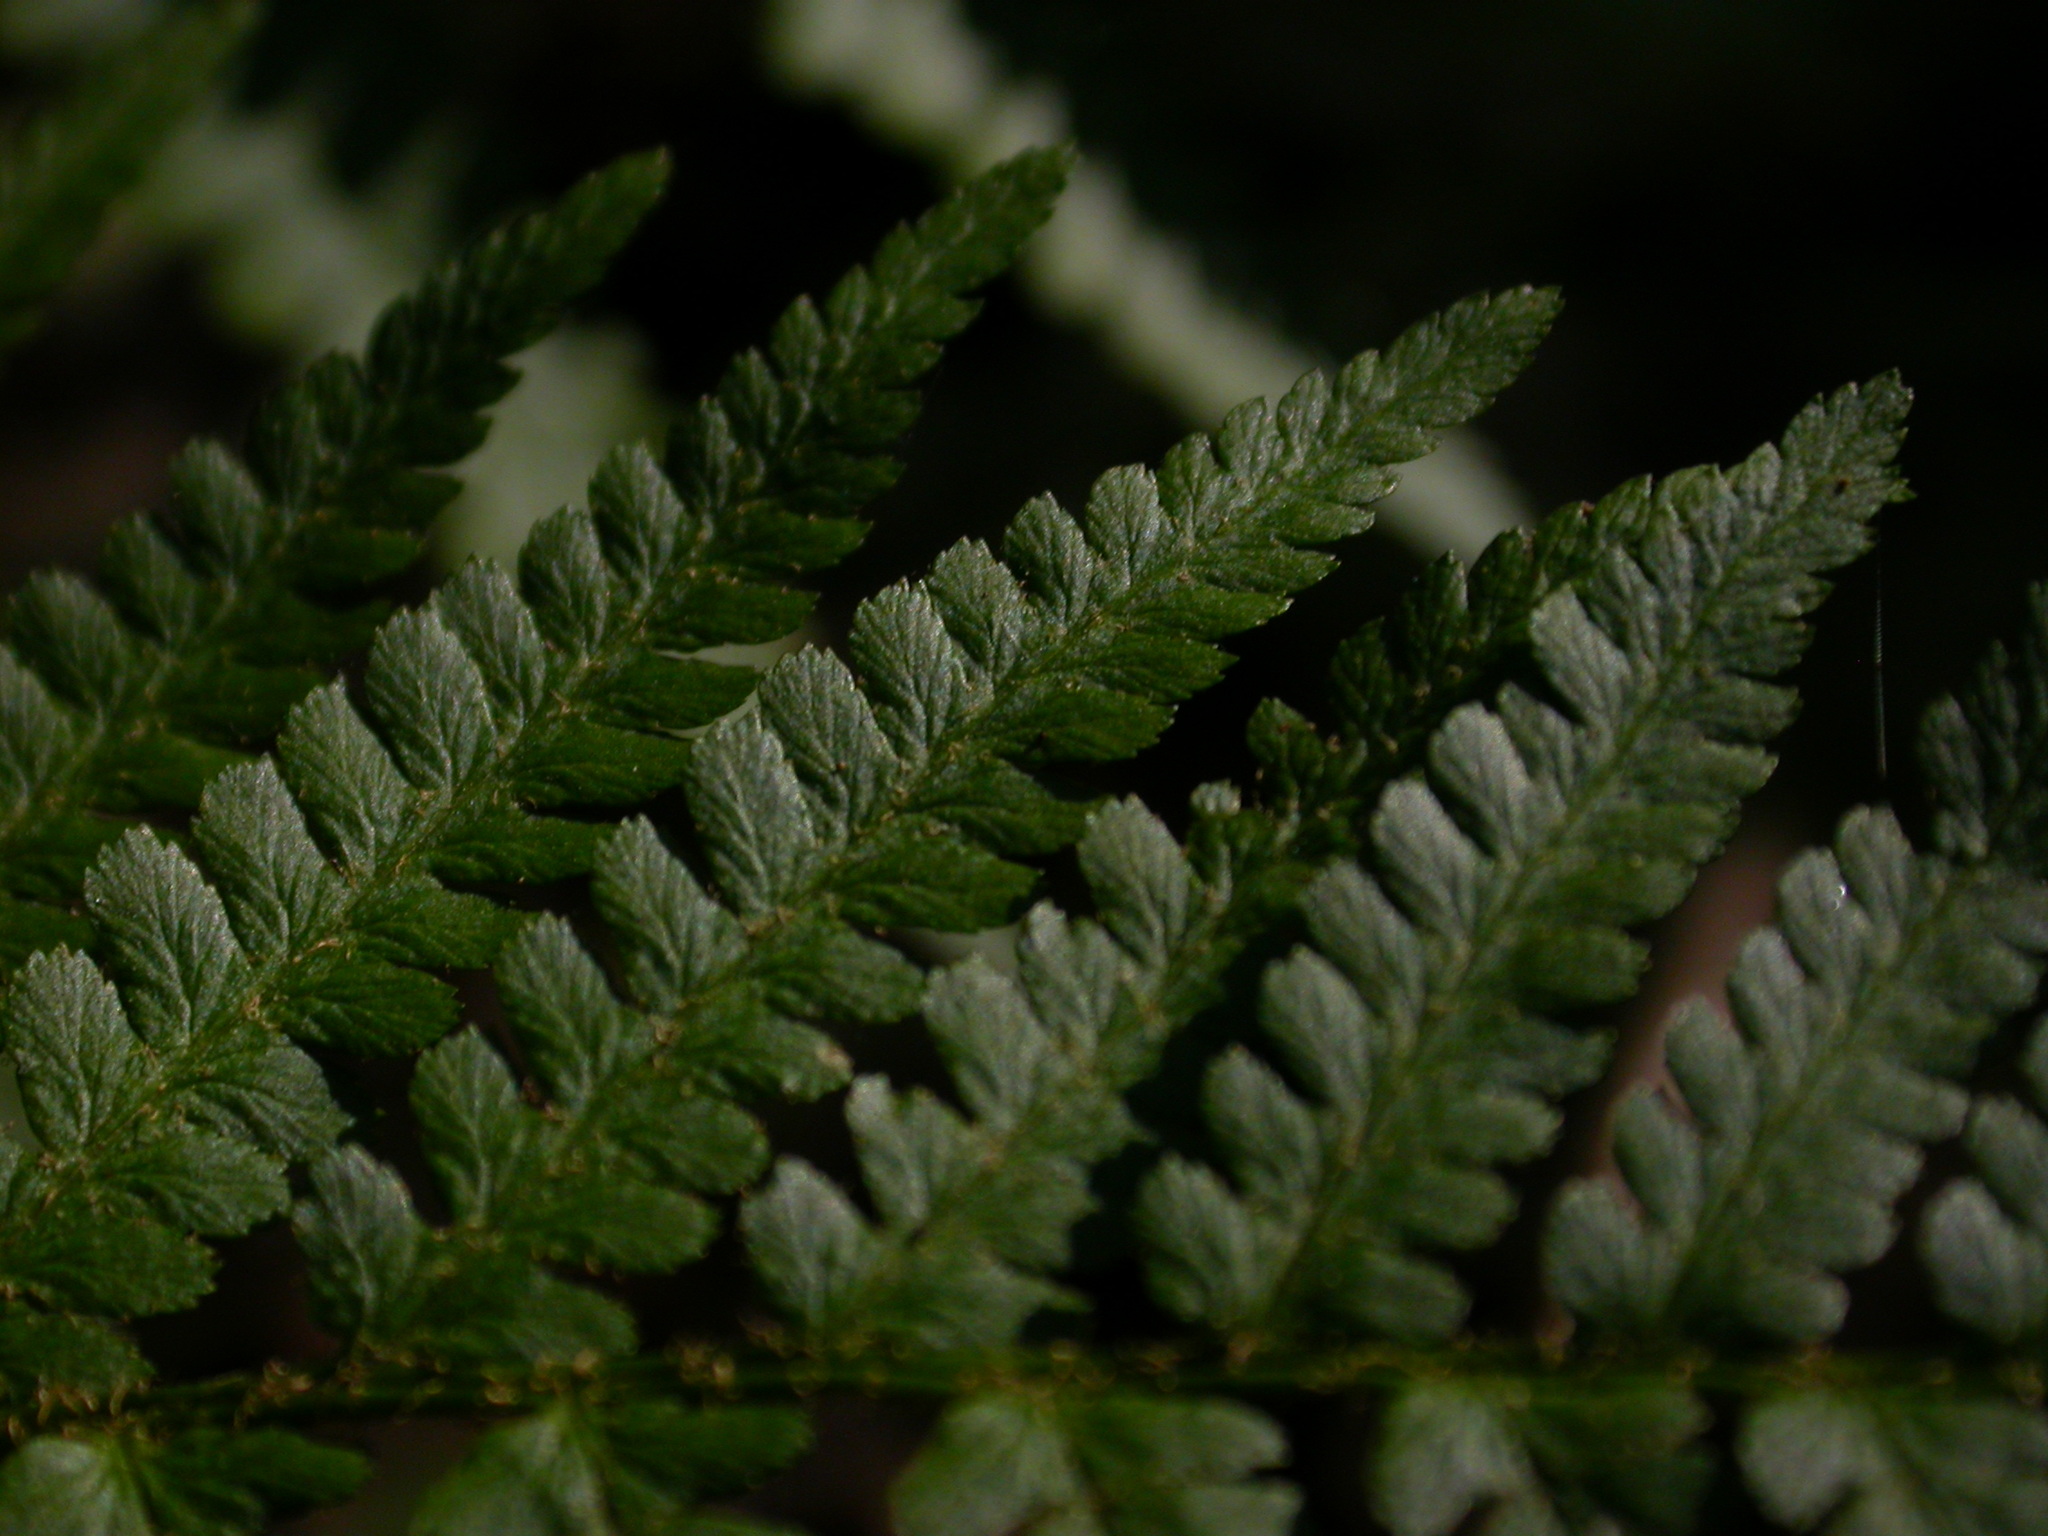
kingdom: Plantae
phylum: Tracheophyta
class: Polypodiopsida
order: Polypodiales
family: Dryopteridaceae
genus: Dryopteris
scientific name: Dryopteris filix-mas
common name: Male fern
